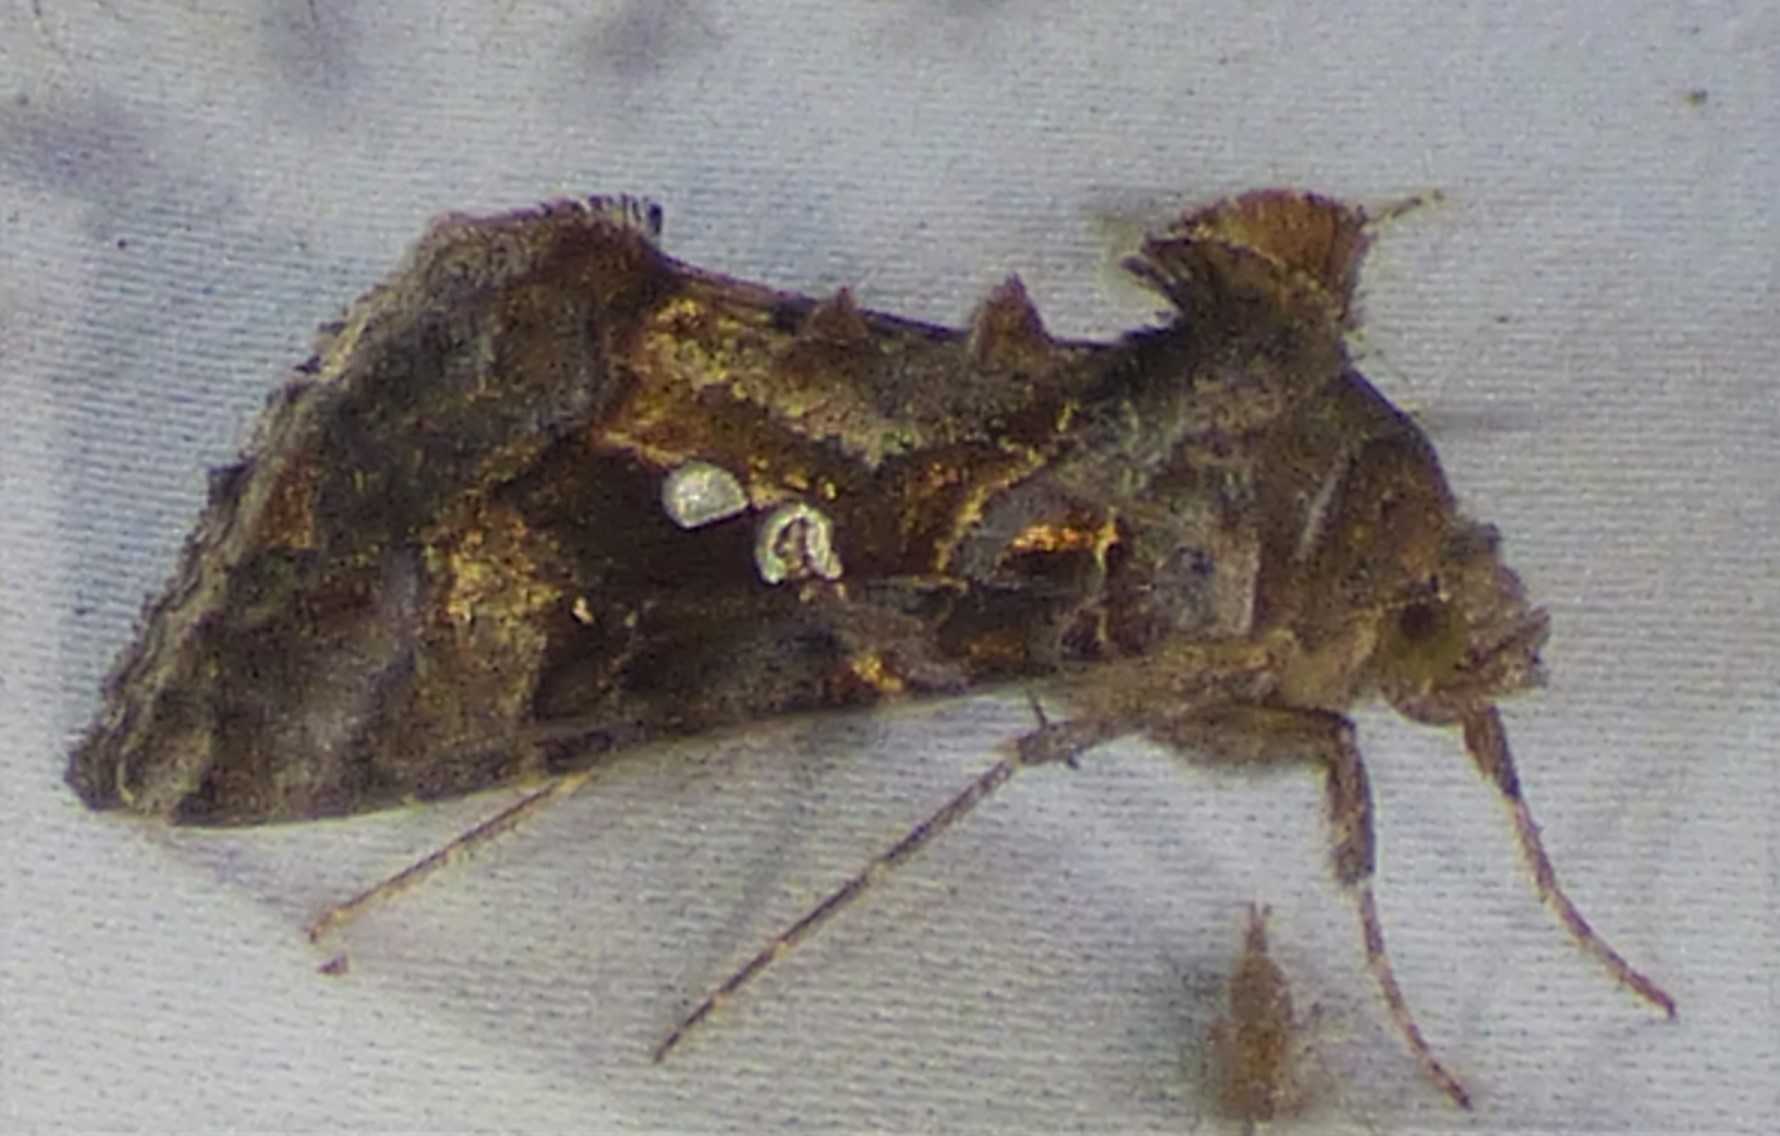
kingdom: Animalia
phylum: Arthropoda
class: Insecta
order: Lepidoptera
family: Noctuidae
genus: Chrysodeixis
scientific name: Chrysodeixis includens
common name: Cutworm moth
